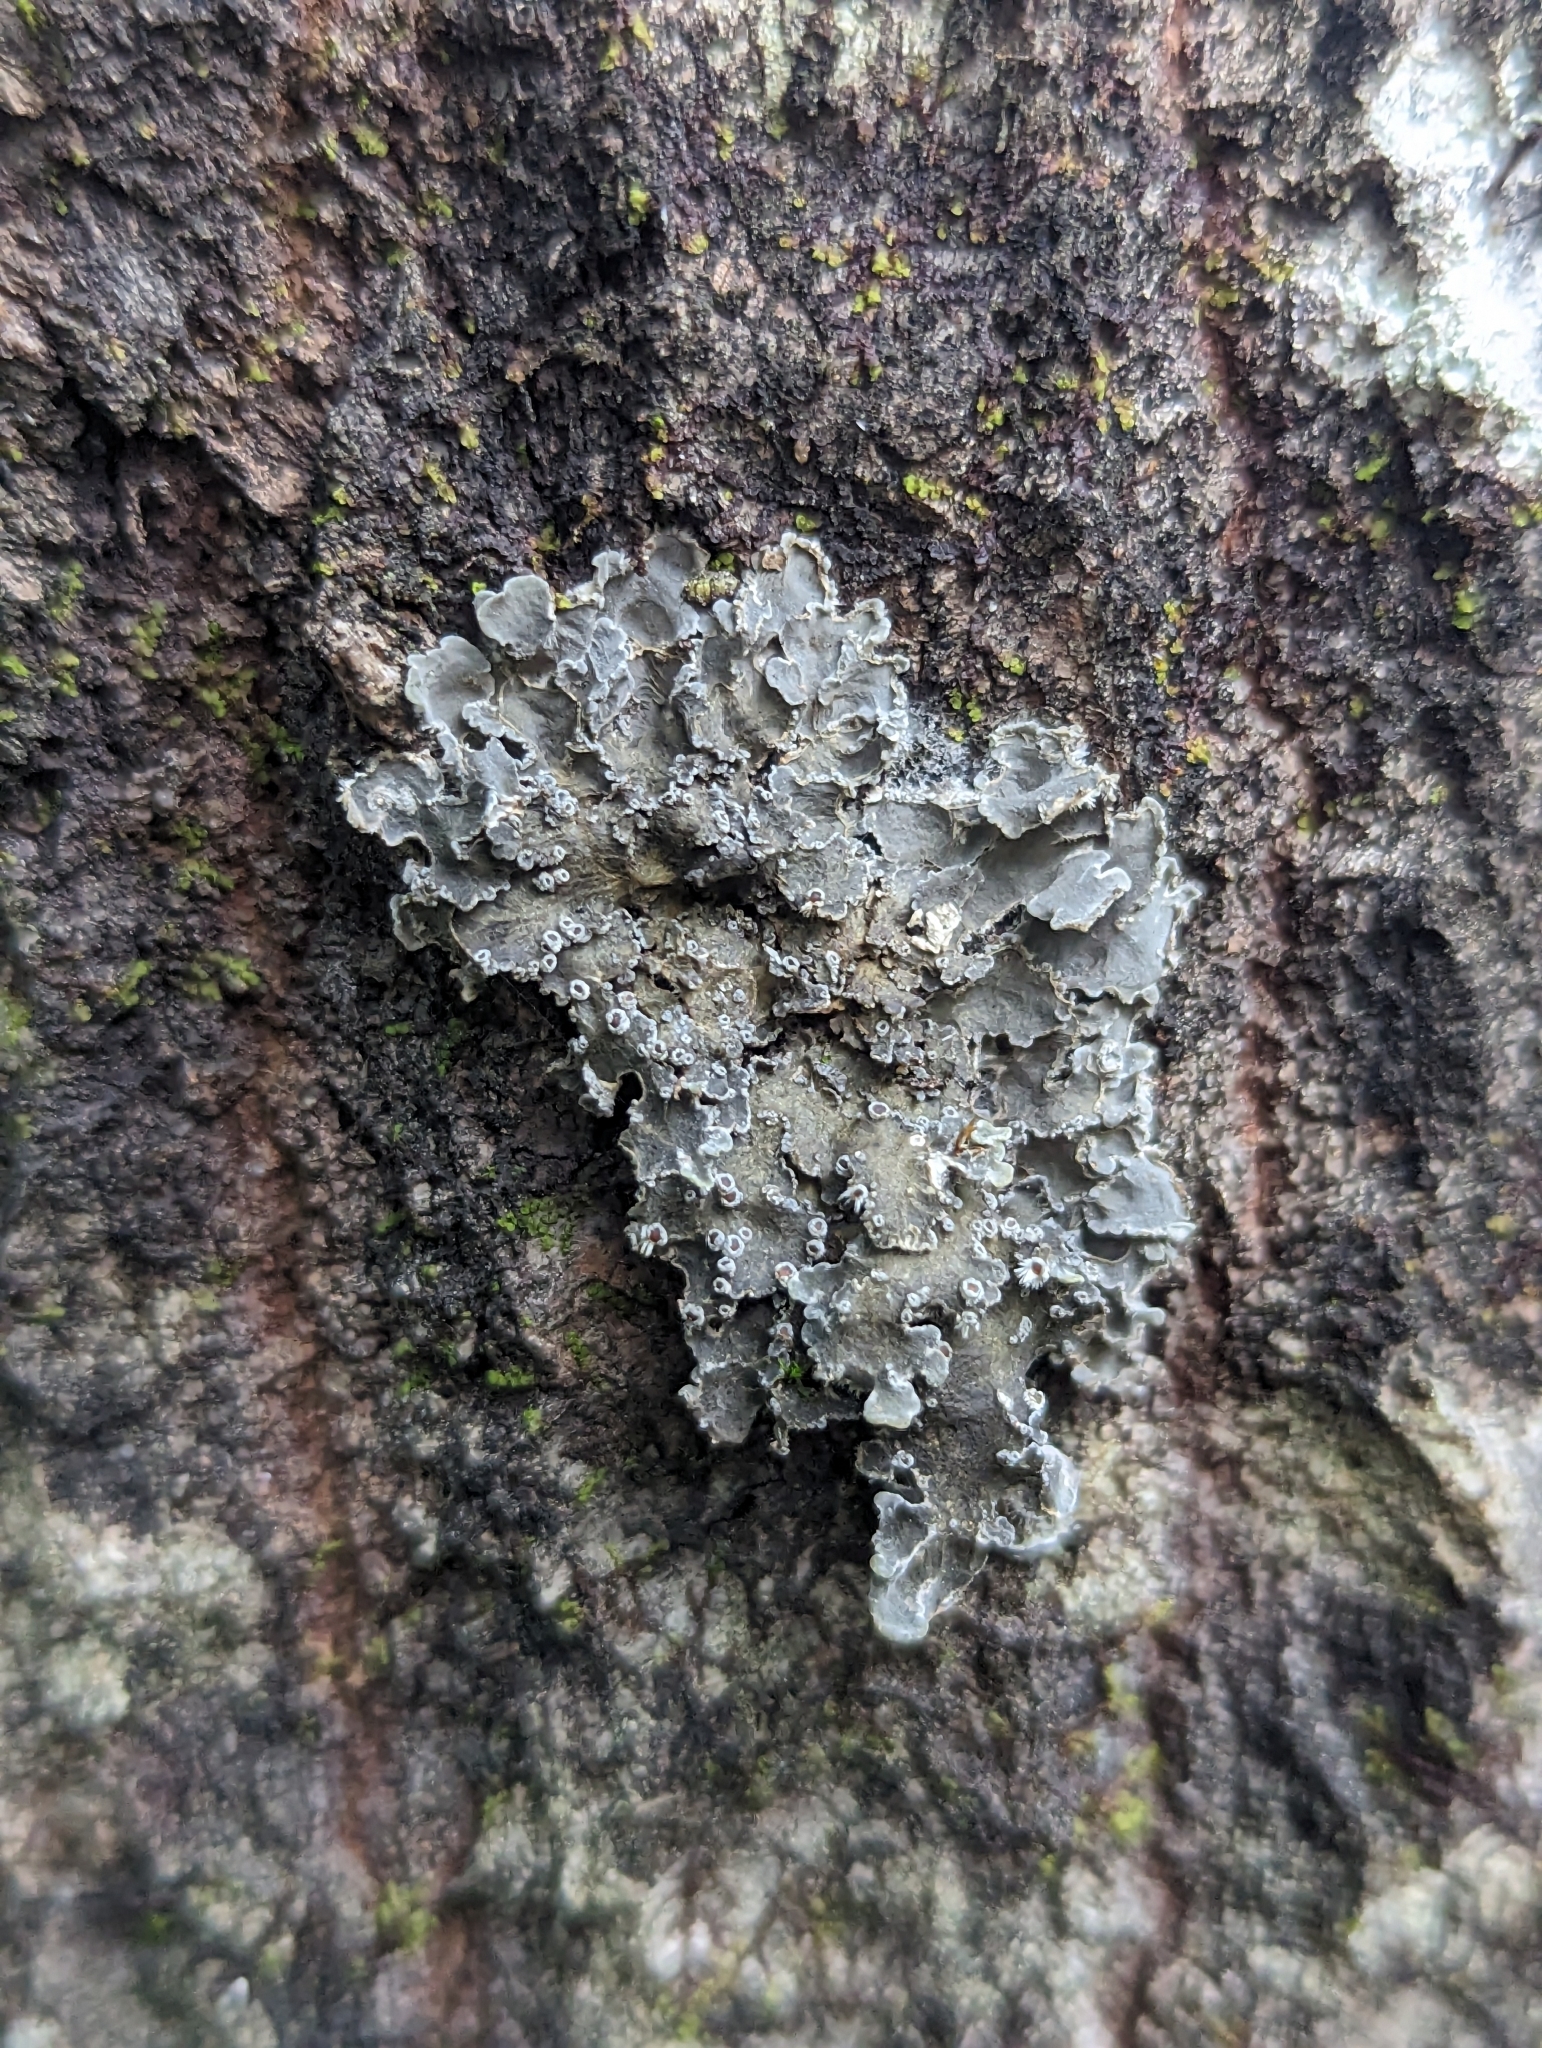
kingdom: Fungi
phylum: Ascomycota
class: Lecanoromycetes
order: Peltigerales
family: Pannariaceae
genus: Pannaria
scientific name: Pannaria lurida
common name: Wrinkled shingle lichen
